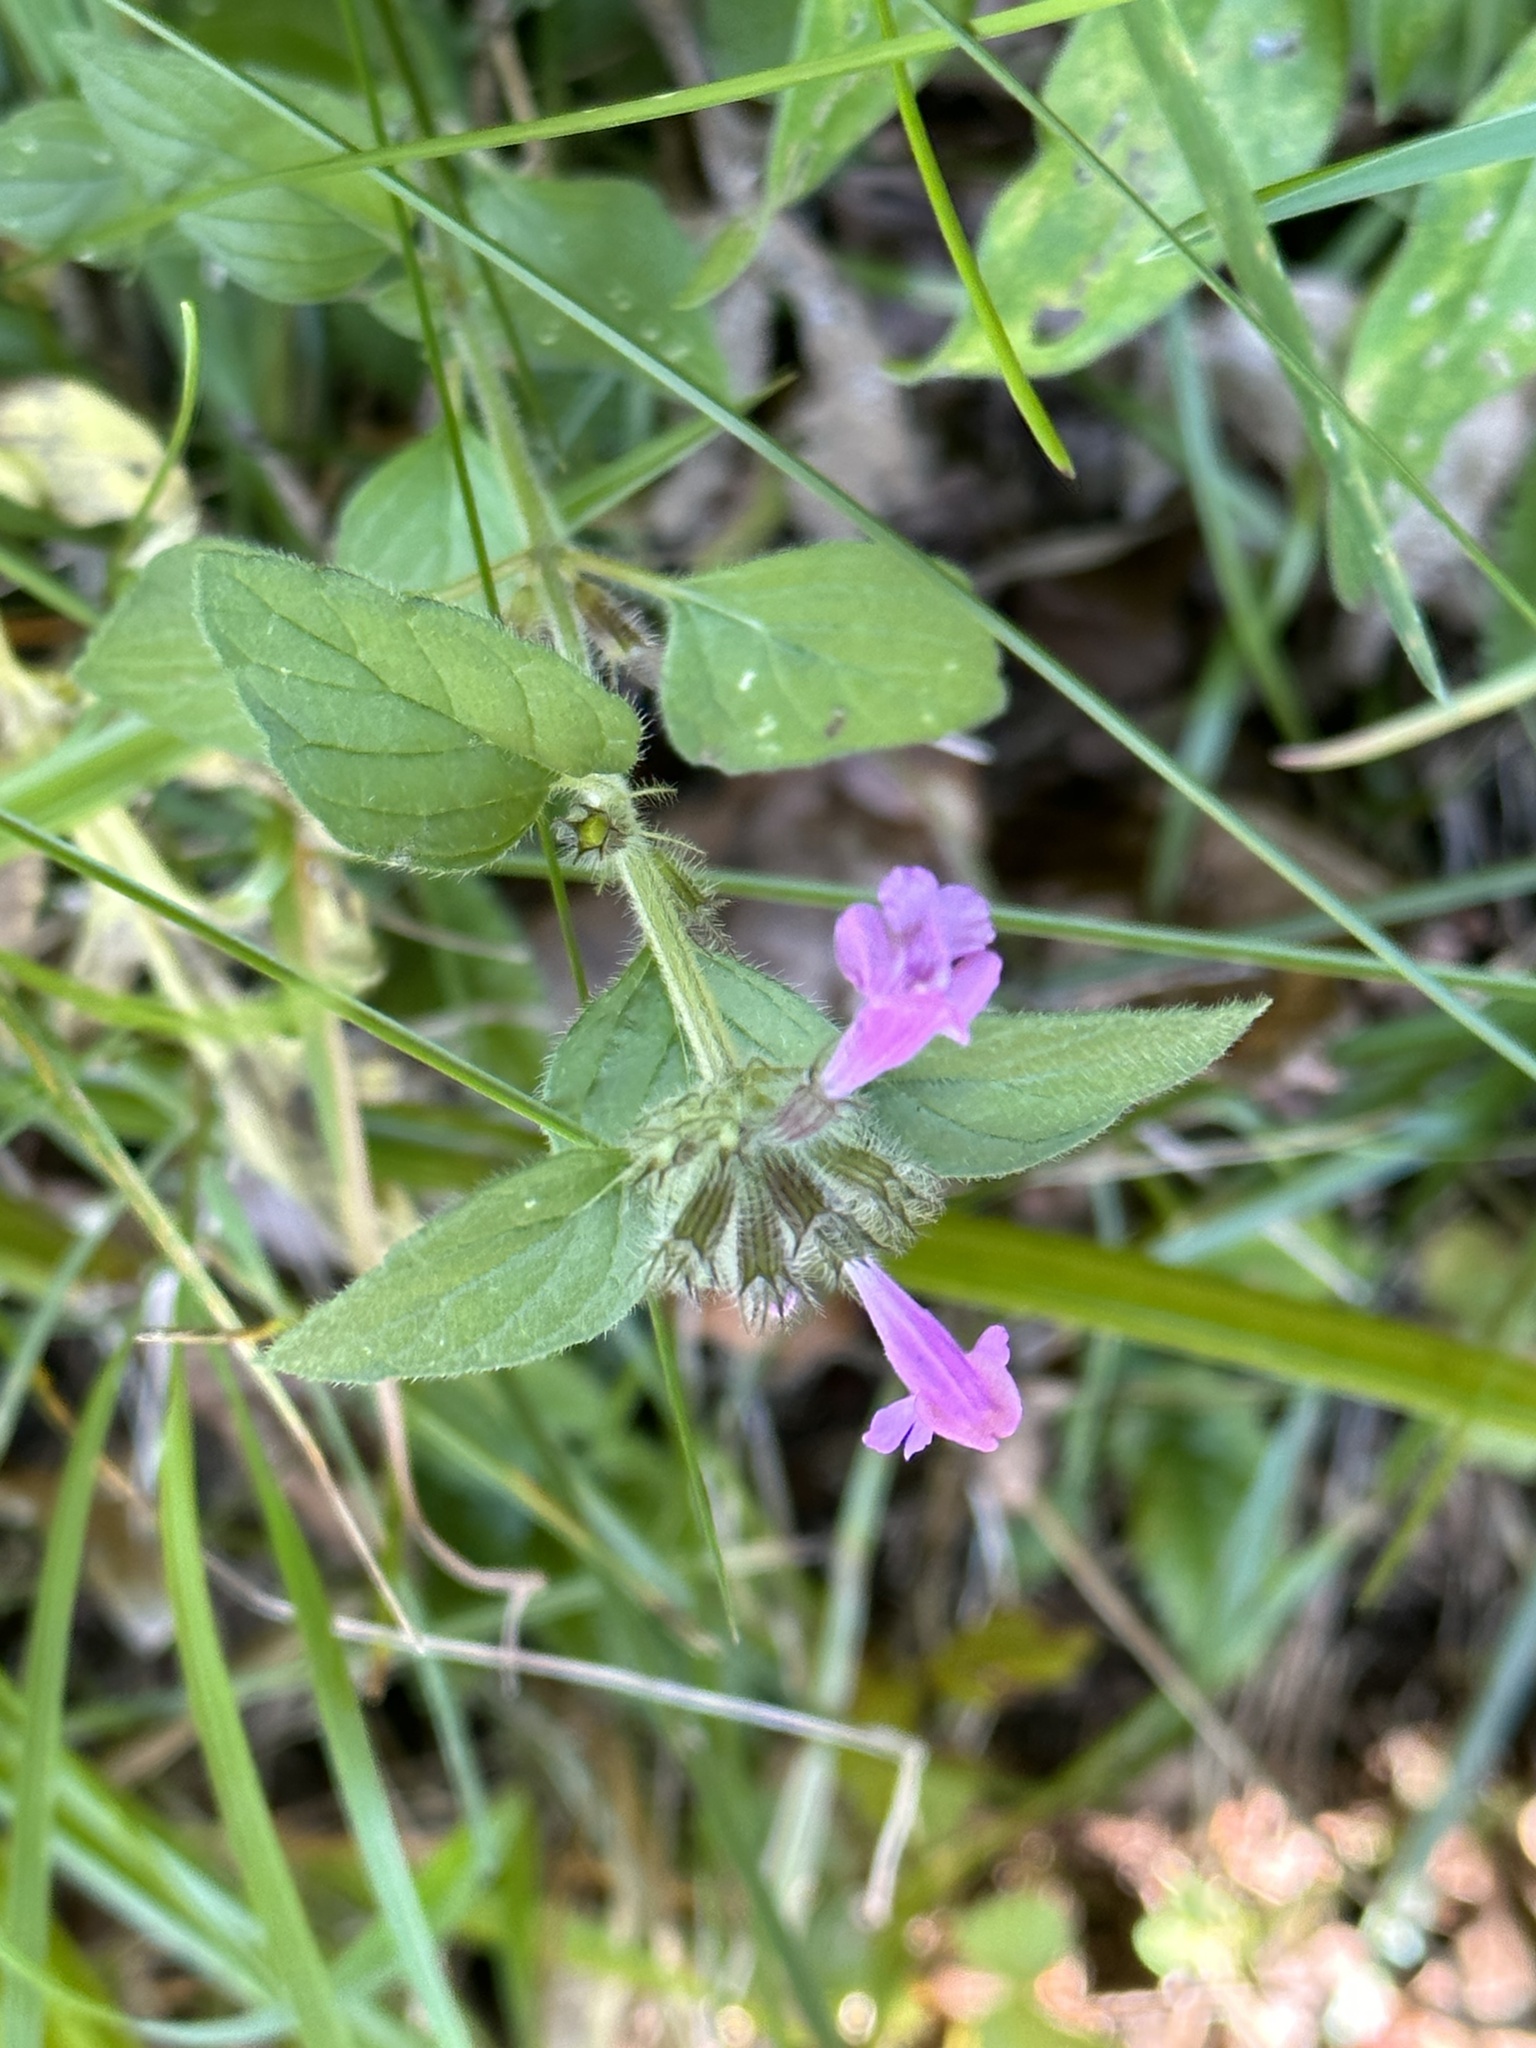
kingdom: Plantae
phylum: Tracheophyta
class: Magnoliopsida
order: Lamiales
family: Lamiaceae
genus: Clinopodium
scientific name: Clinopodium vulgare
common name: Wild basil
